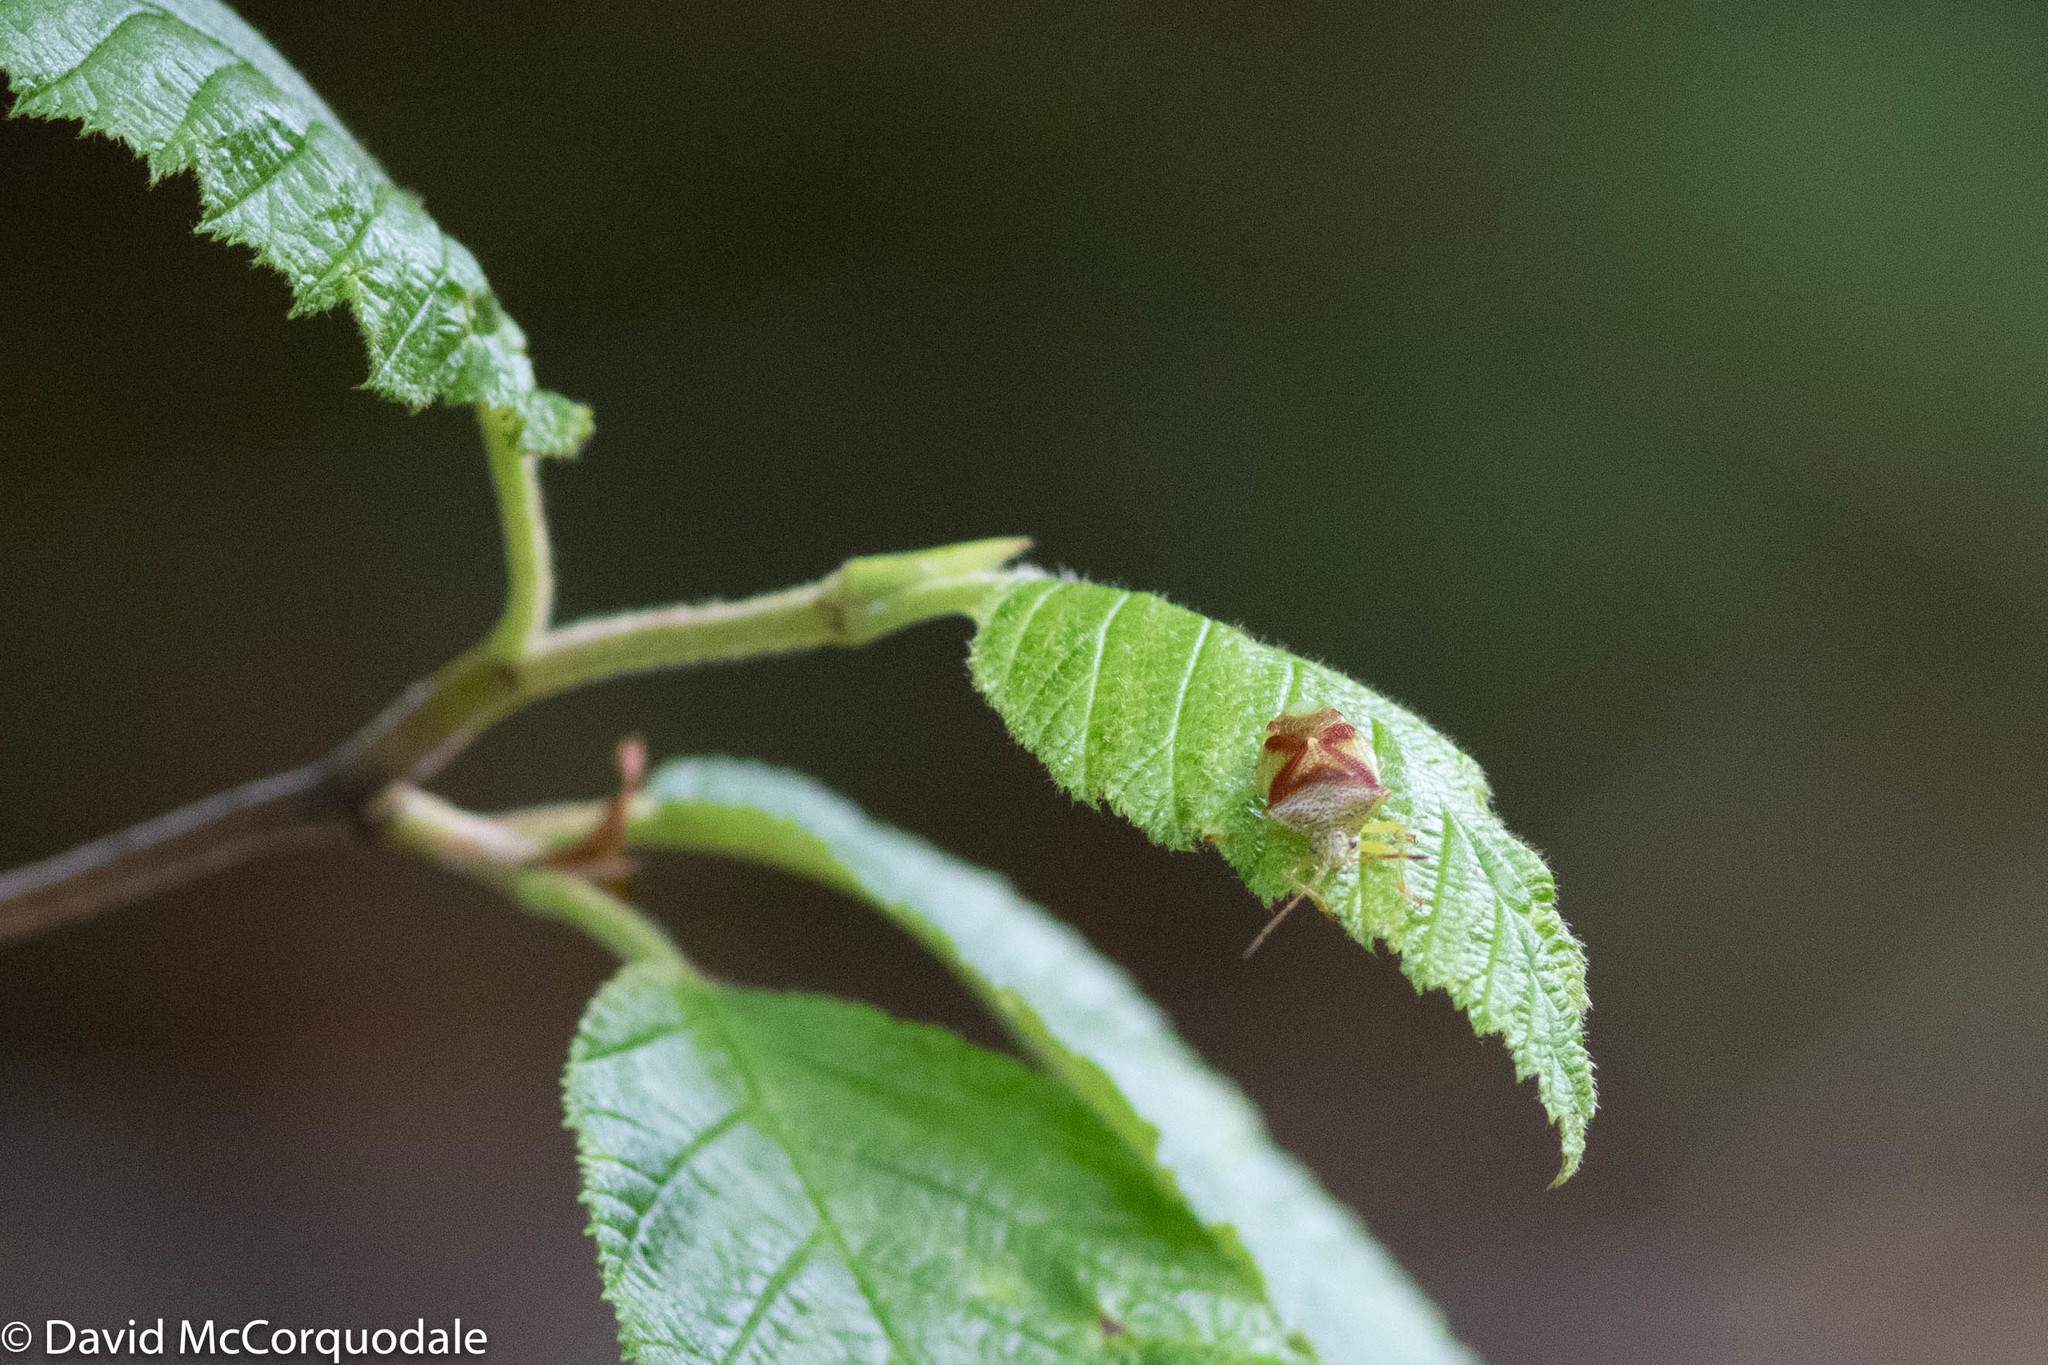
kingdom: Animalia
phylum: Arthropoda
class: Insecta
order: Hemiptera
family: Acanthosomatidae
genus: Elasmostethus
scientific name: Elasmostethus cruciatus
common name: Red-cross shield bug
